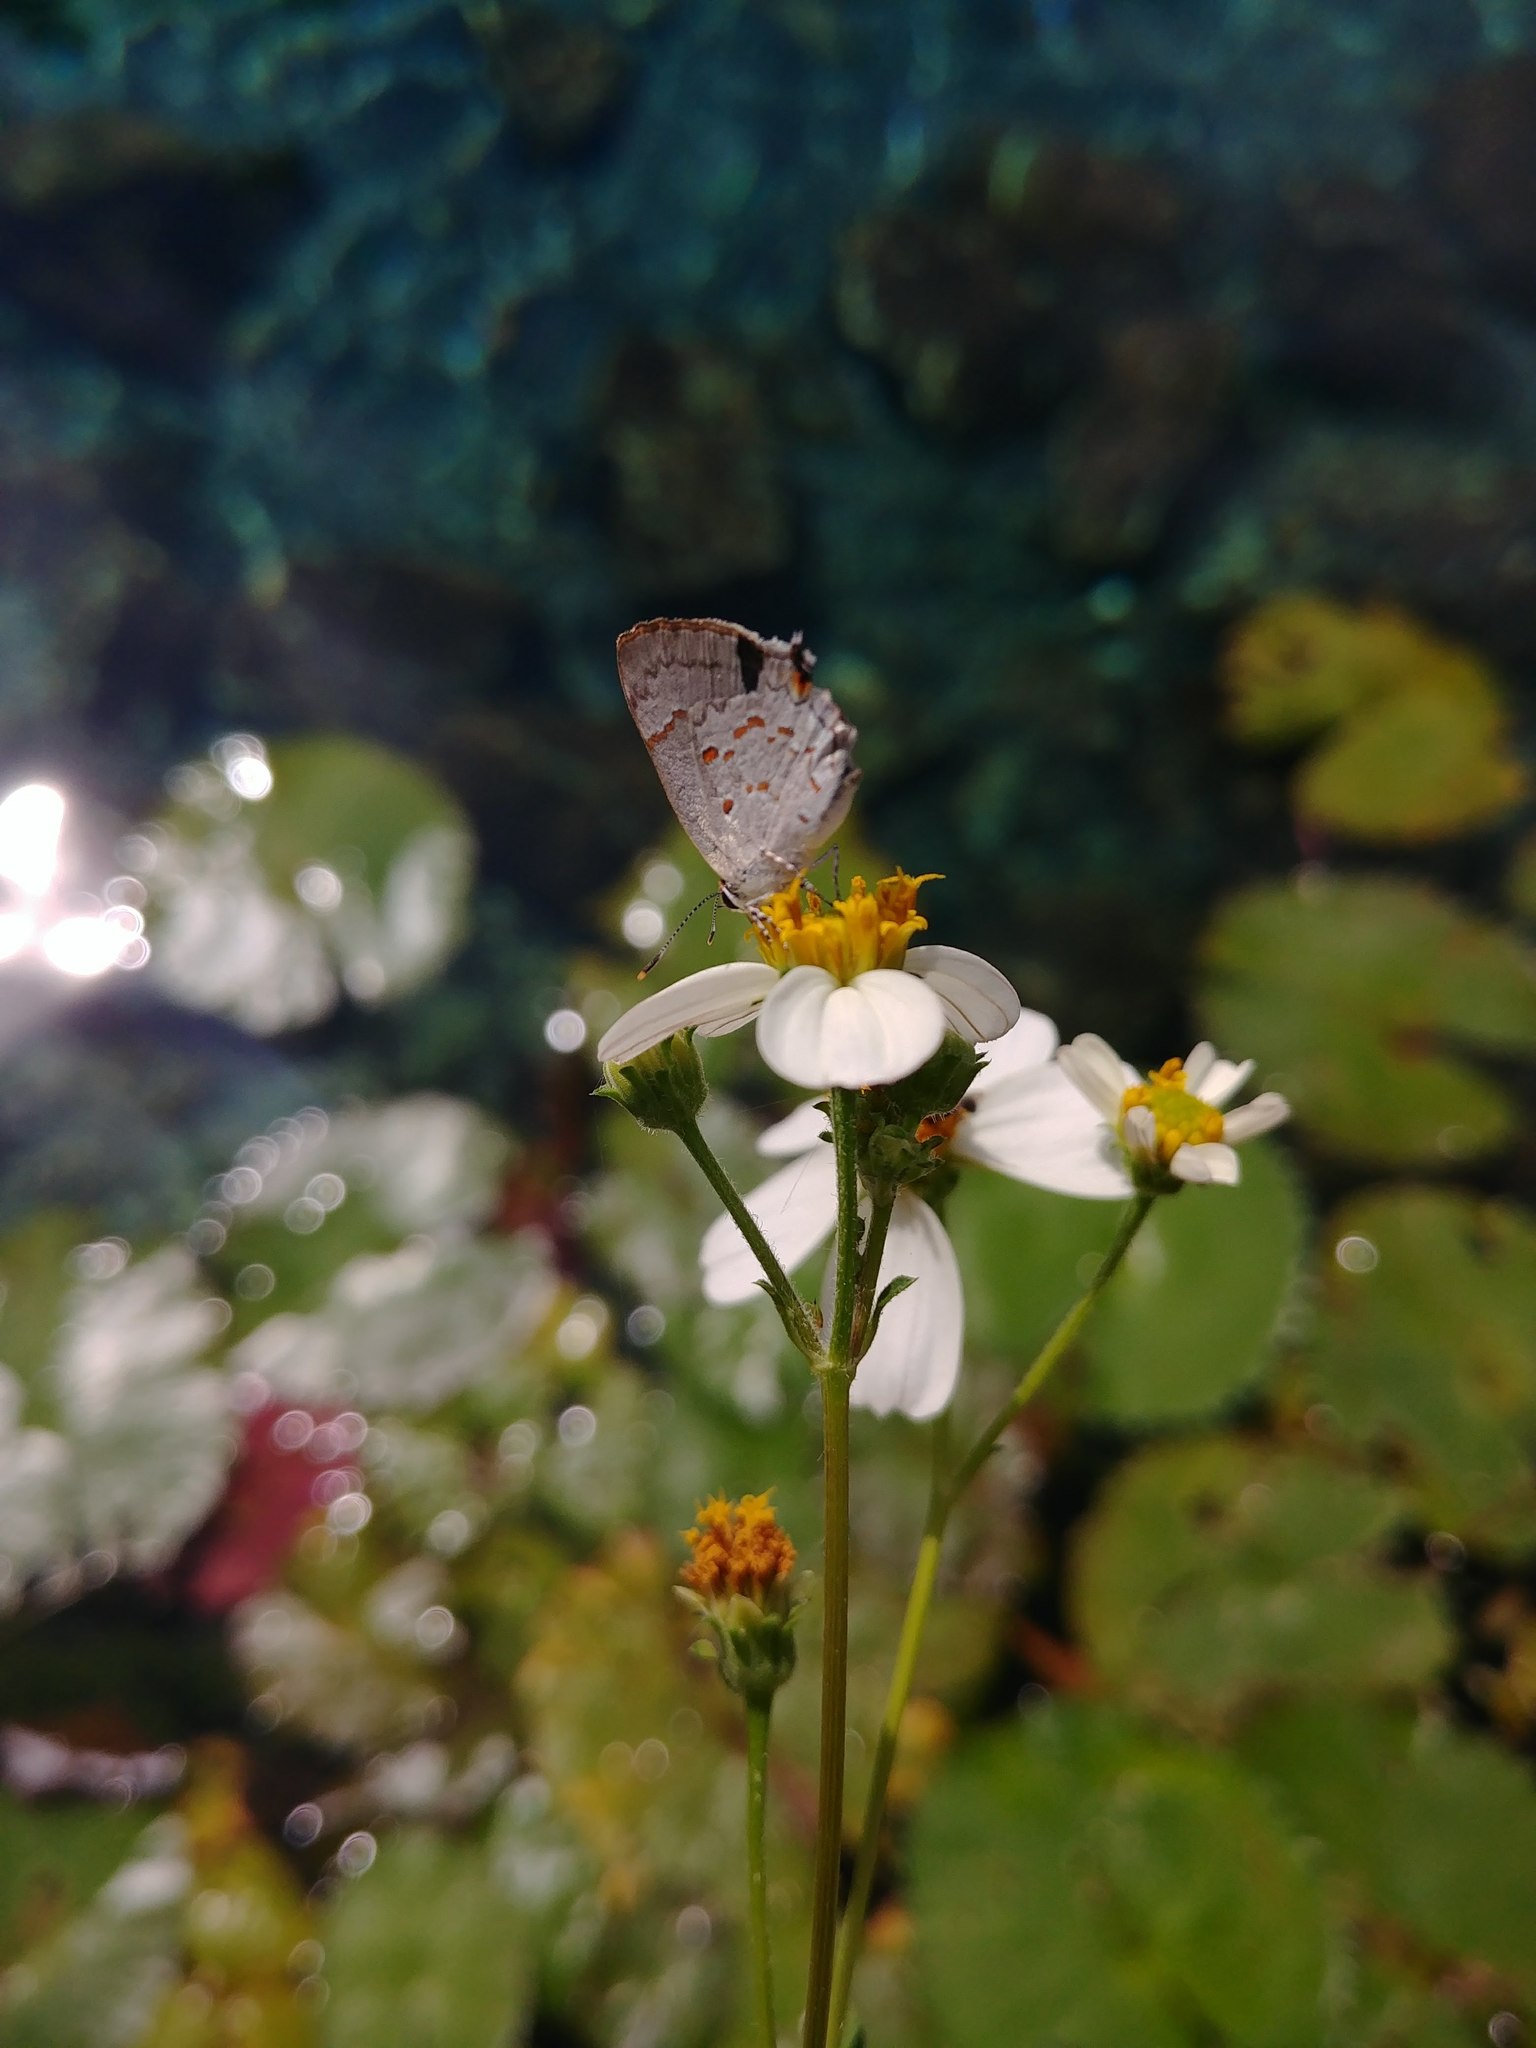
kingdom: Animalia
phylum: Arthropoda
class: Insecta
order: Lepidoptera
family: Lycaenidae
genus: Tmolus
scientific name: Tmolus echion
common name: Red-spotted hairstreak
